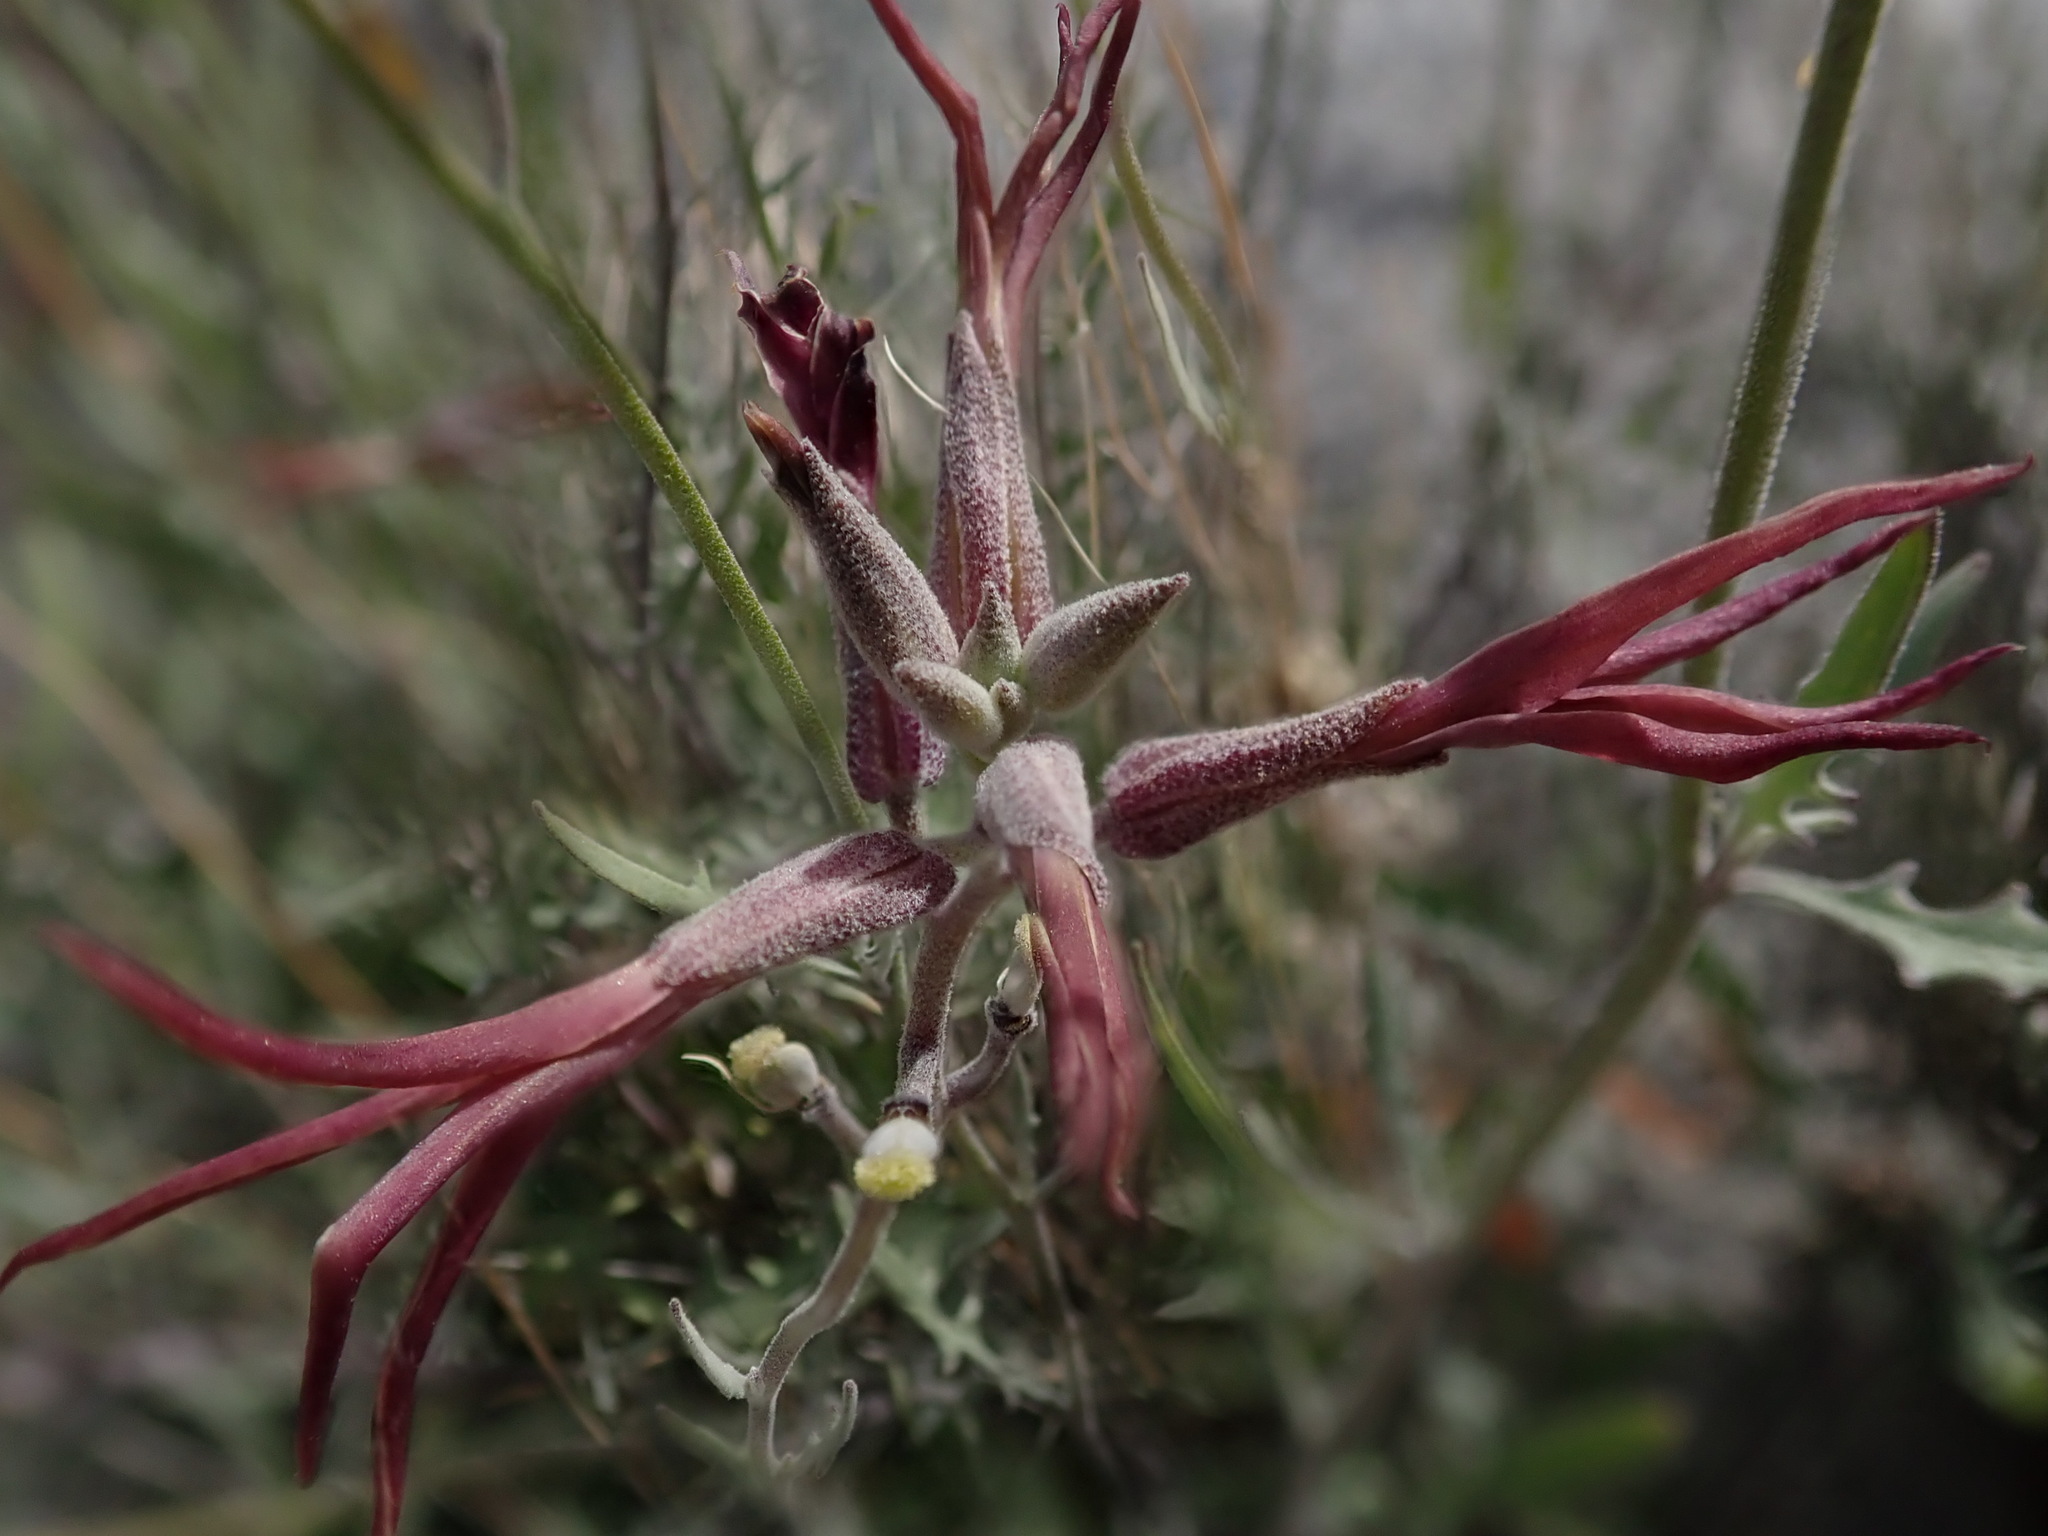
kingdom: Plantae
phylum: Tracheophyta
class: Magnoliopsida
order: Brassicales
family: Brassicaceae
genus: Lyrocarpa
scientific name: Lyrocarpa coulteri
